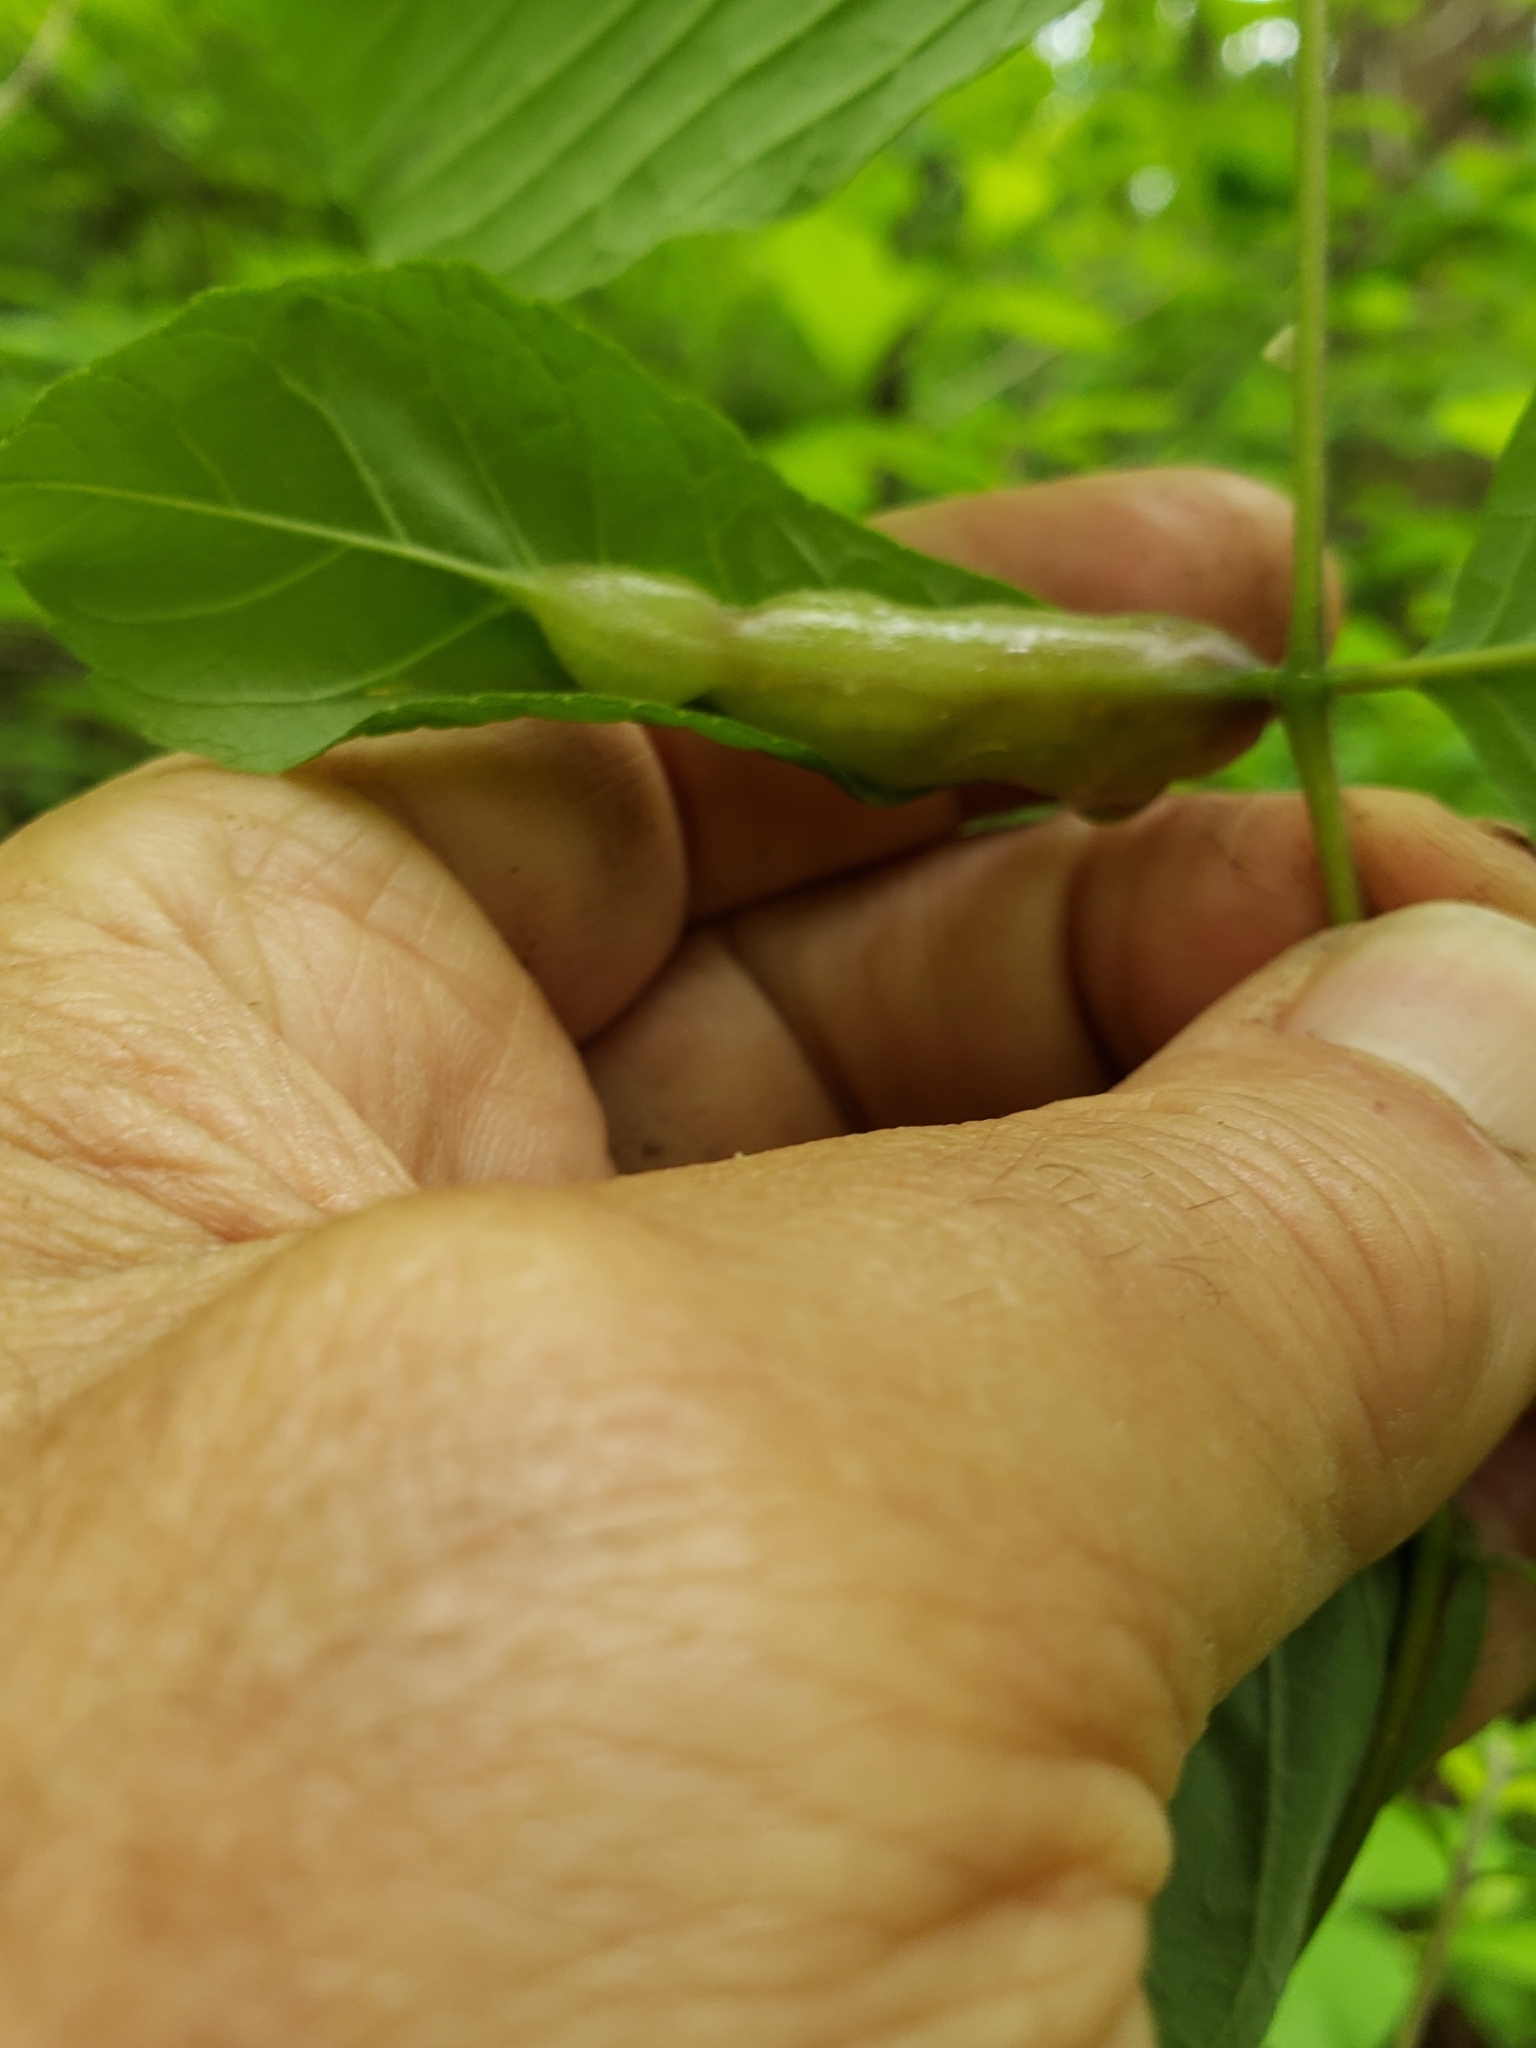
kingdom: Animalia
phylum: Arthropoda
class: Insecta
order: Diptera
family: Cecidomyiidae
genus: Dasineura
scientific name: Dasineura tumidosae
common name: Ash petiole gall midge
